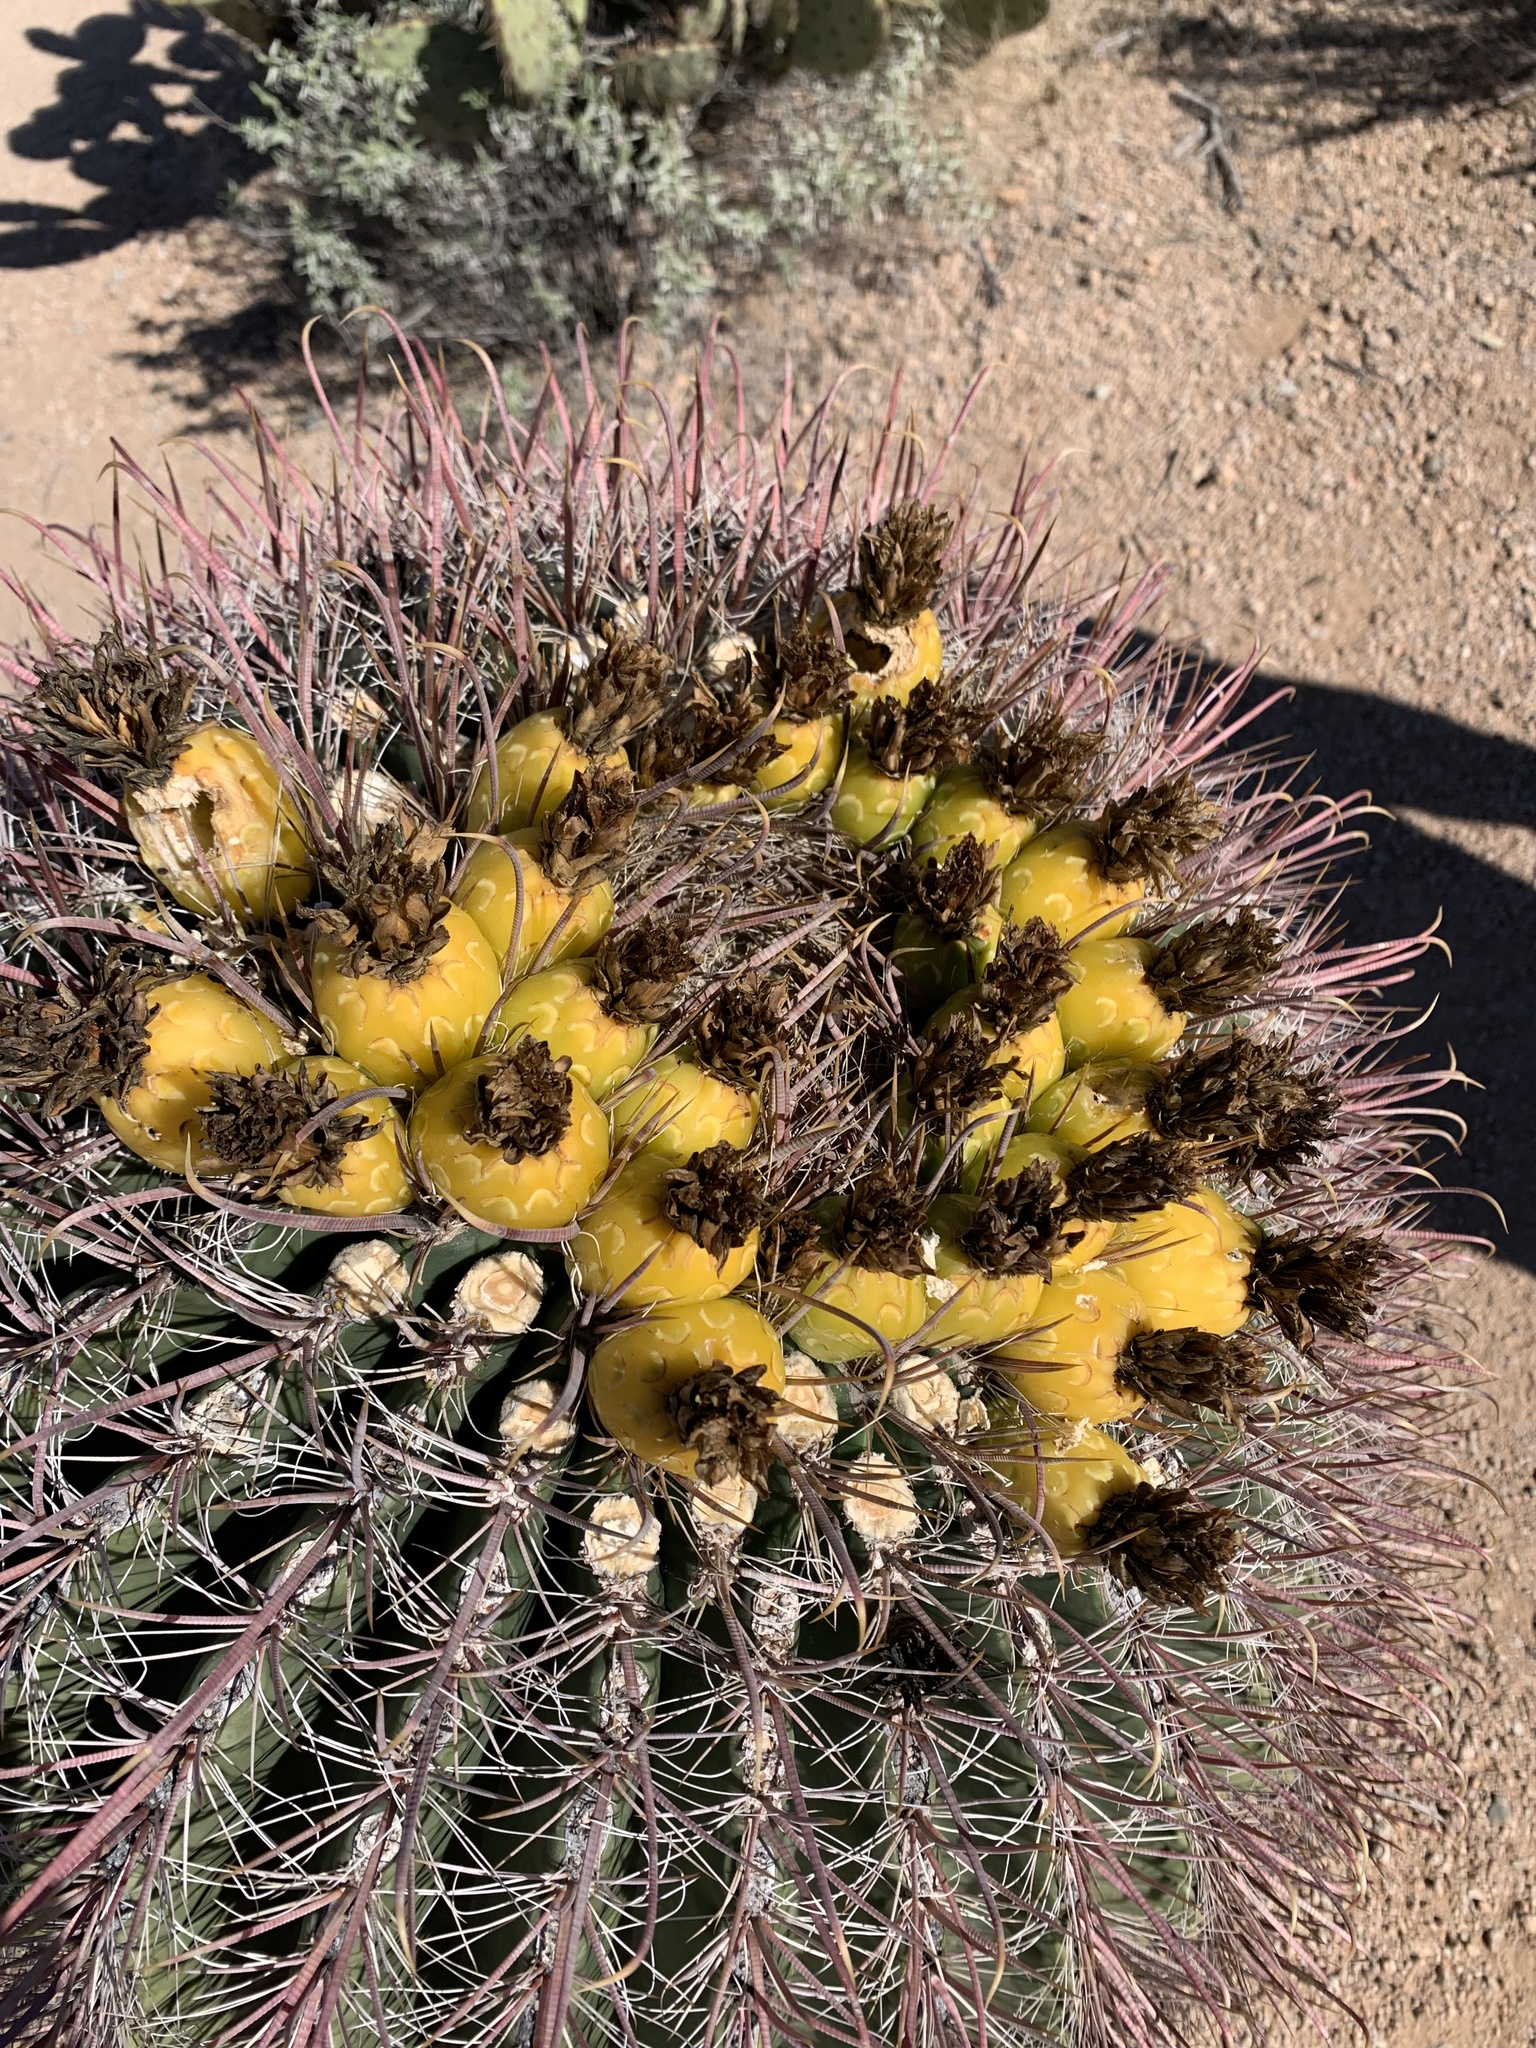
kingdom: Plantae
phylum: Tracheophyta
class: Magnoliopsida
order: Caryophyllales
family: Cactaceae
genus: Ferocactus
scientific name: Ferocactus wislizeni
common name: Candy barrel cactus
